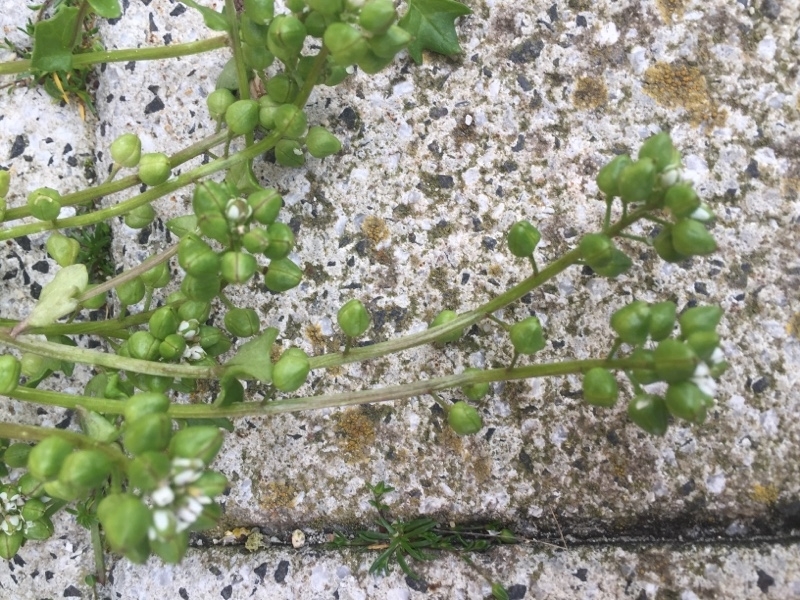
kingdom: Plantae
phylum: Tracheophyta
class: Magnoliopsida
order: Brassicales
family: Brassicaceae
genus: Cochlearia
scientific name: Cochlearia danica
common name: Early scurvygrass
